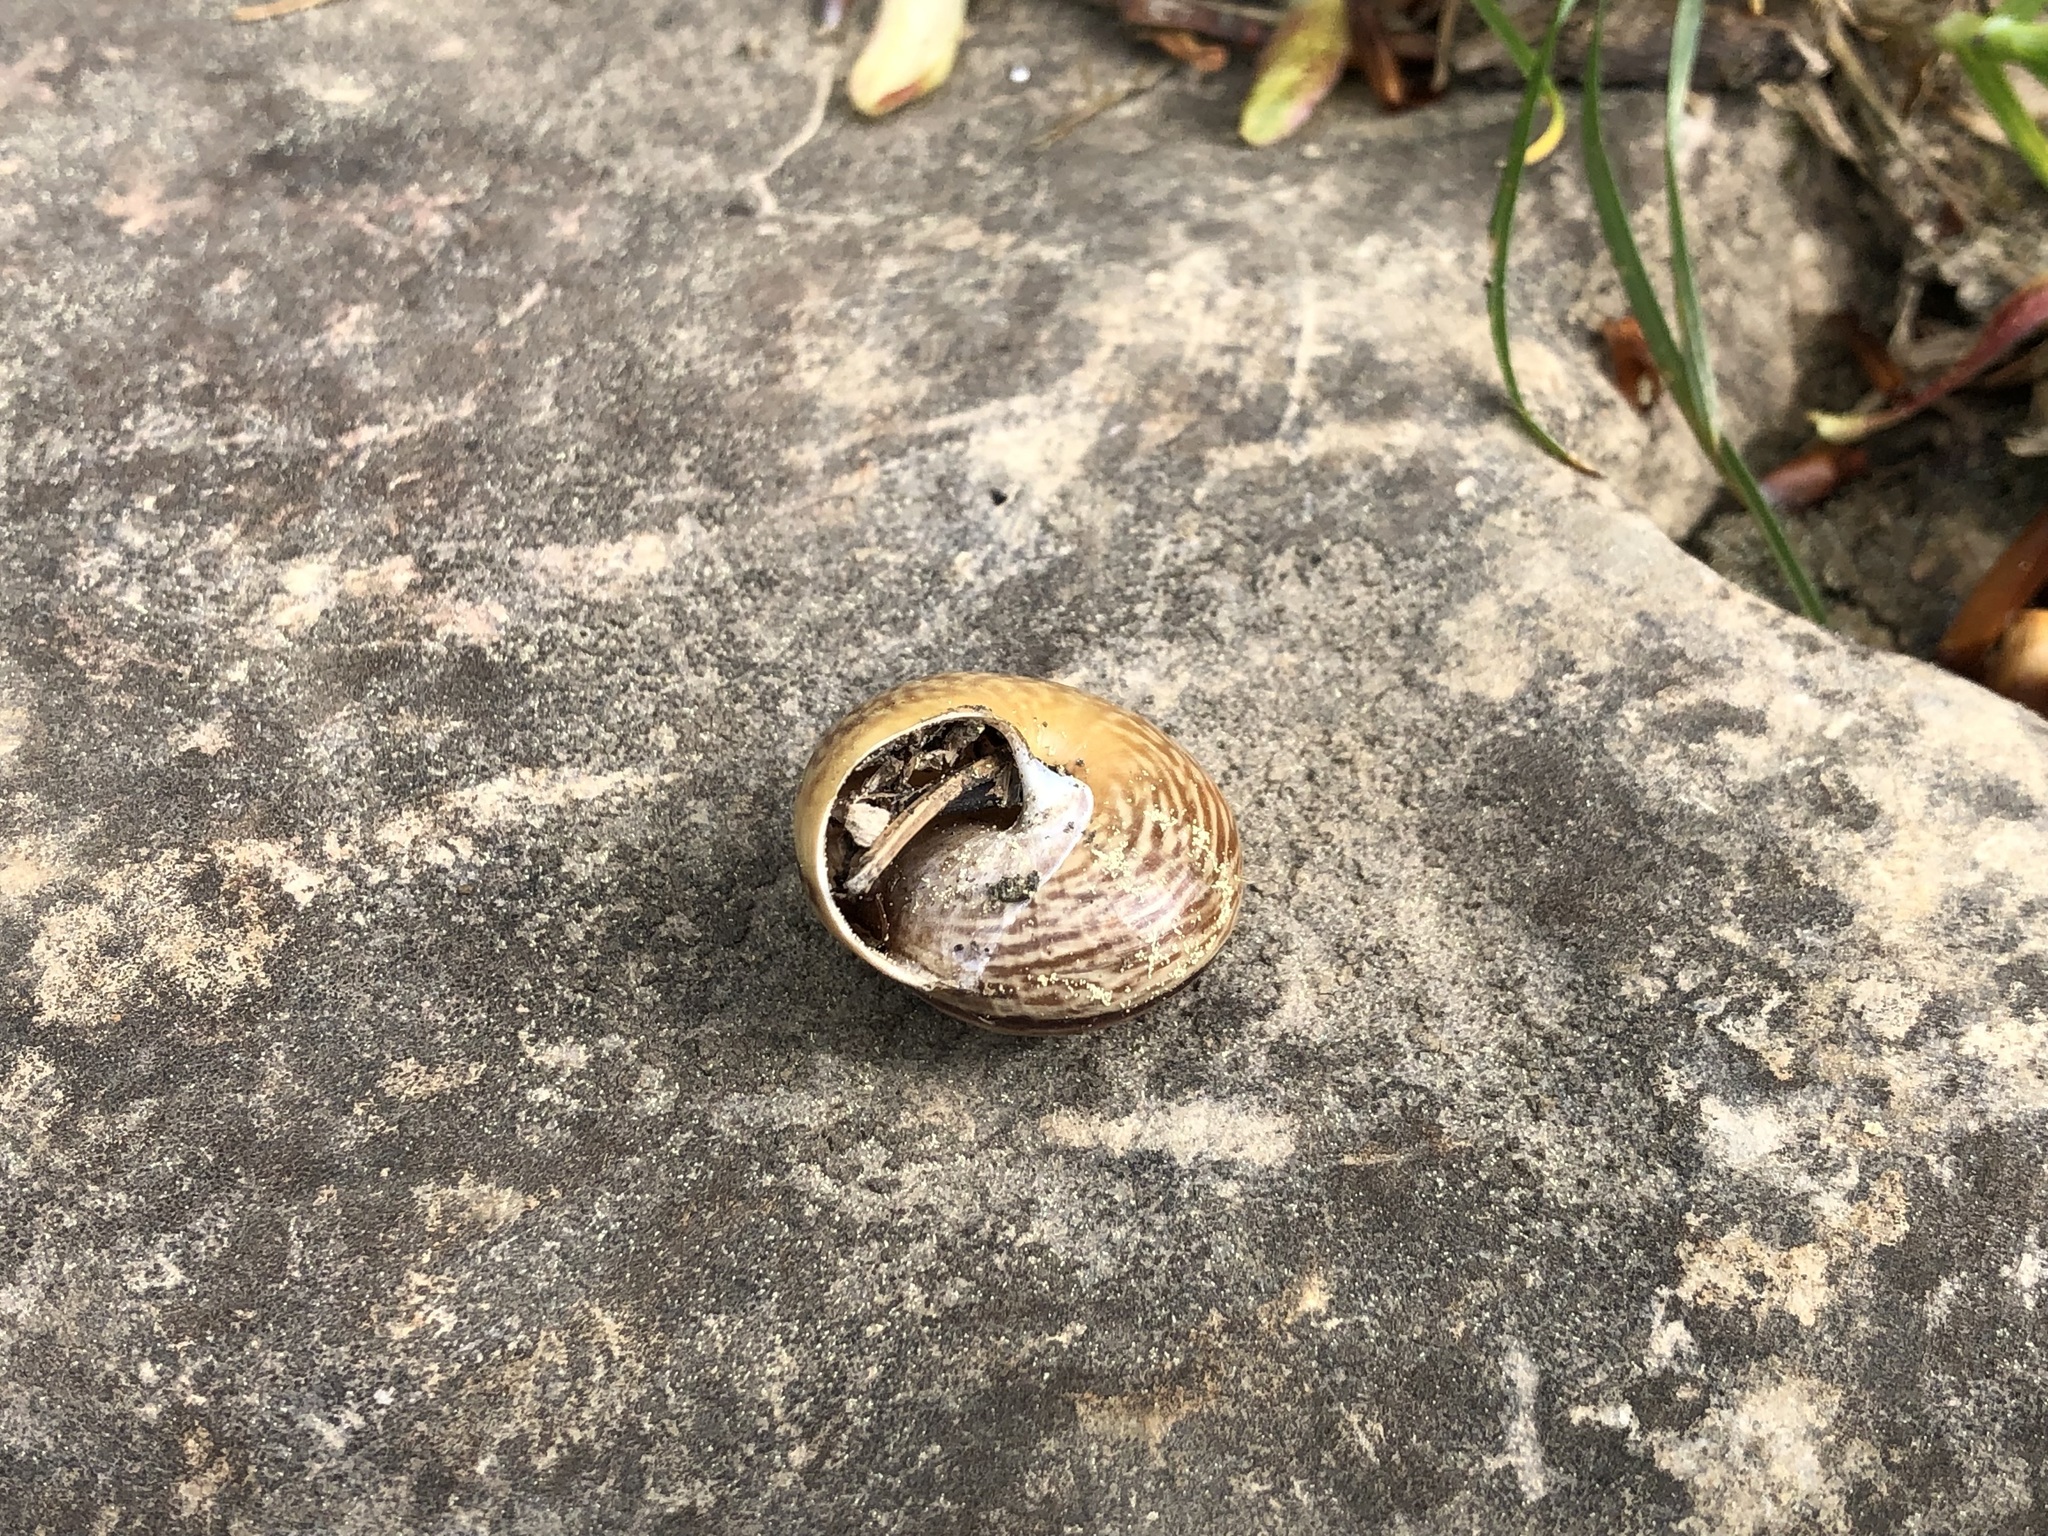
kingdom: Animalia
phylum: Mollusca
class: Gastropoda
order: Stylommatophora
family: Helicidae
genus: Arianta
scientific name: Arianta arbustorum
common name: Copse snail
